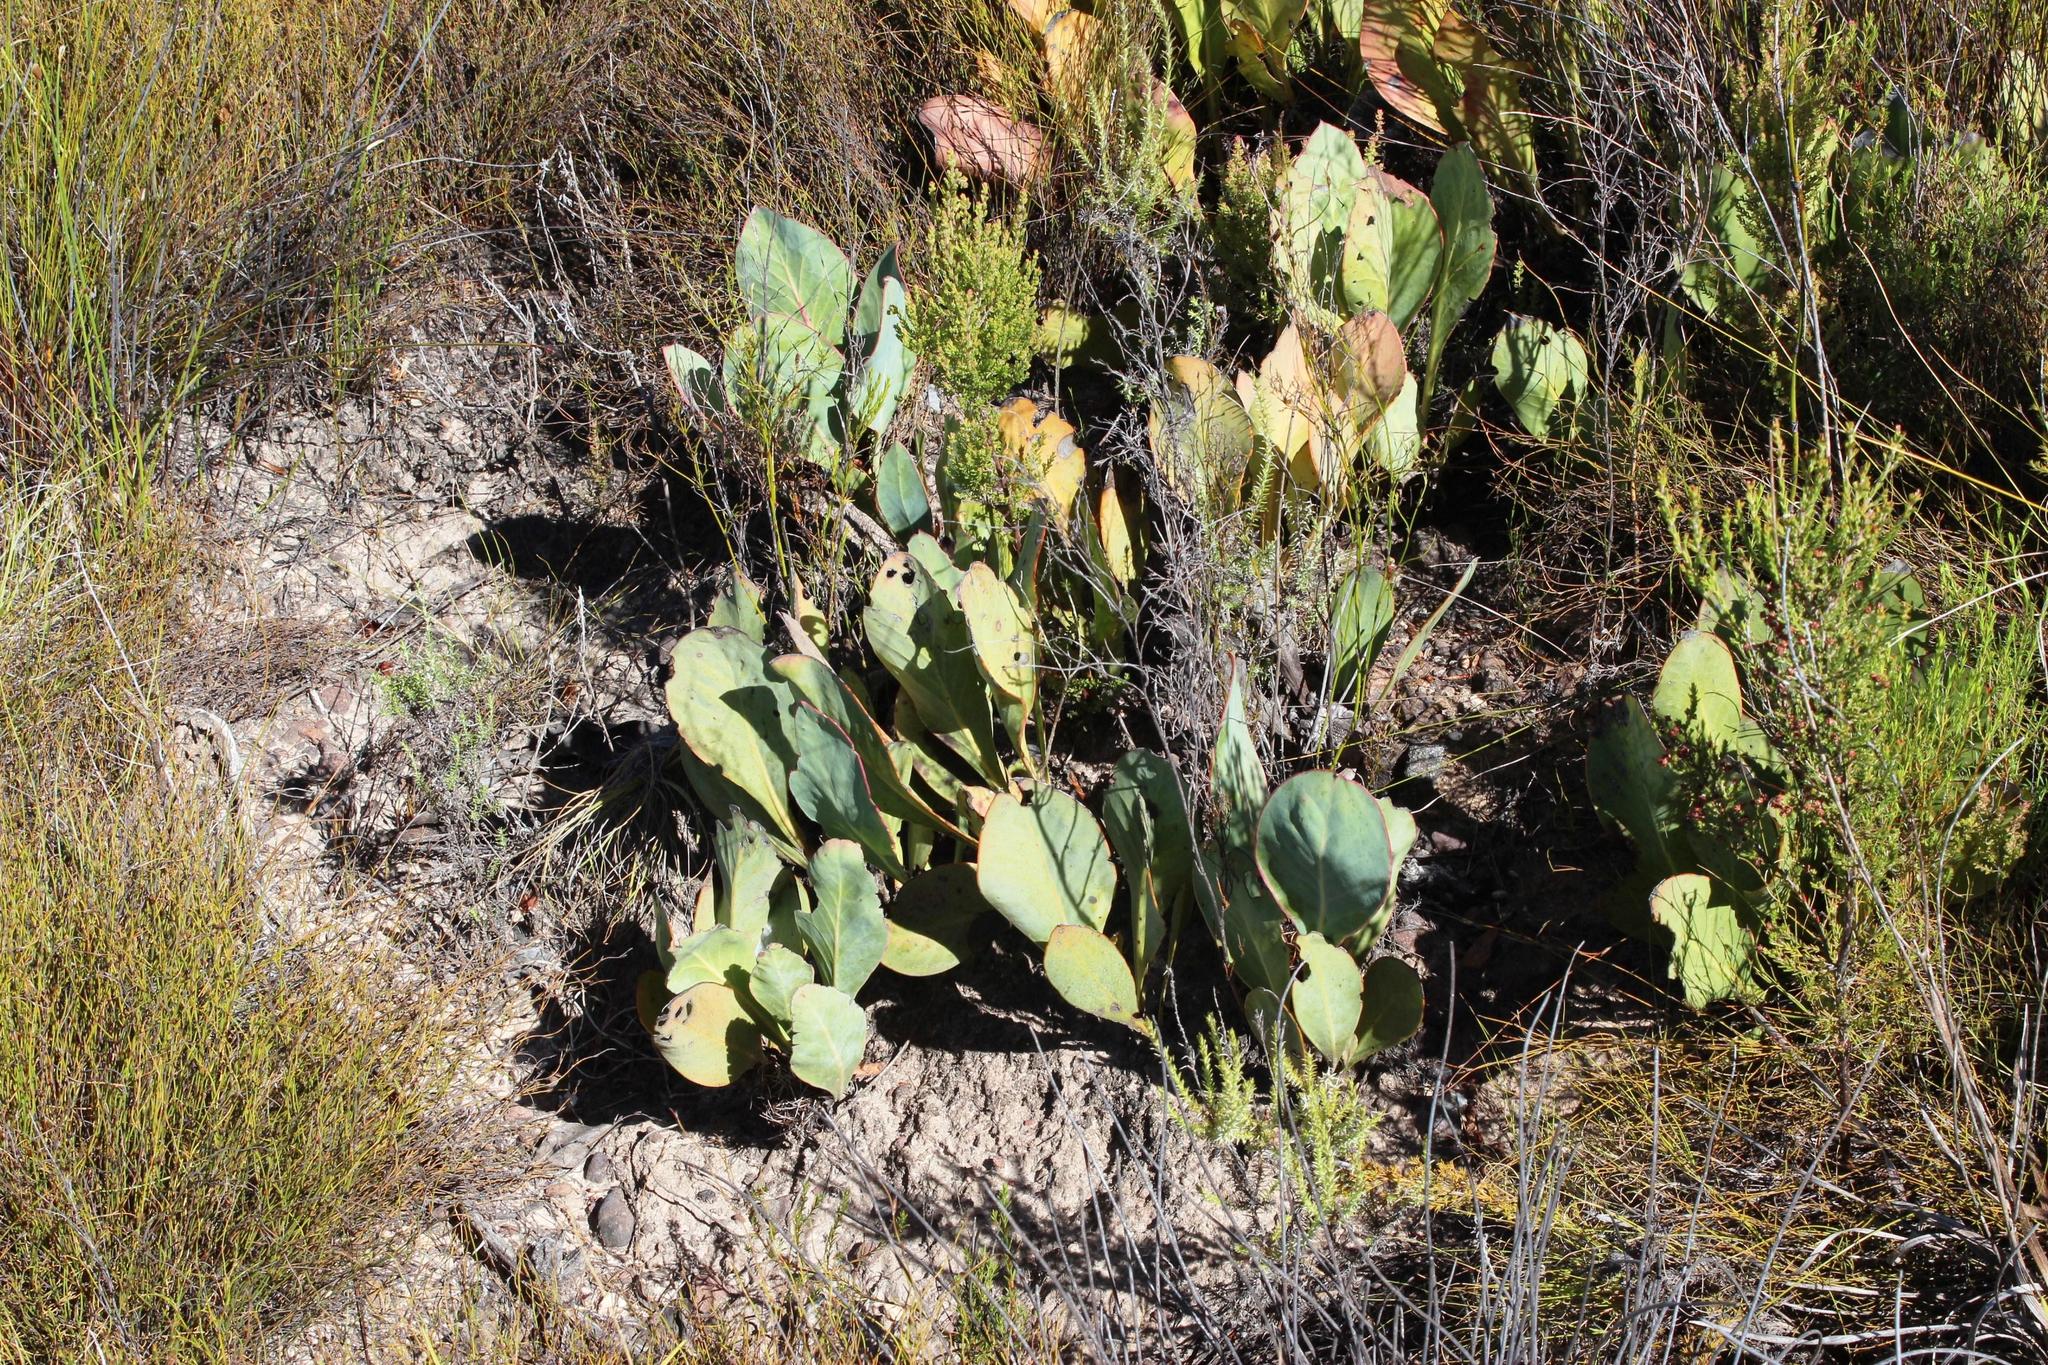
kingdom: Plantae
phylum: Tracheophyta
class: Magnoliopsida
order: Proteales
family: Proteaceae
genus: Protea
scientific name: Protea acaulos
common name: Common ground sugarbush
